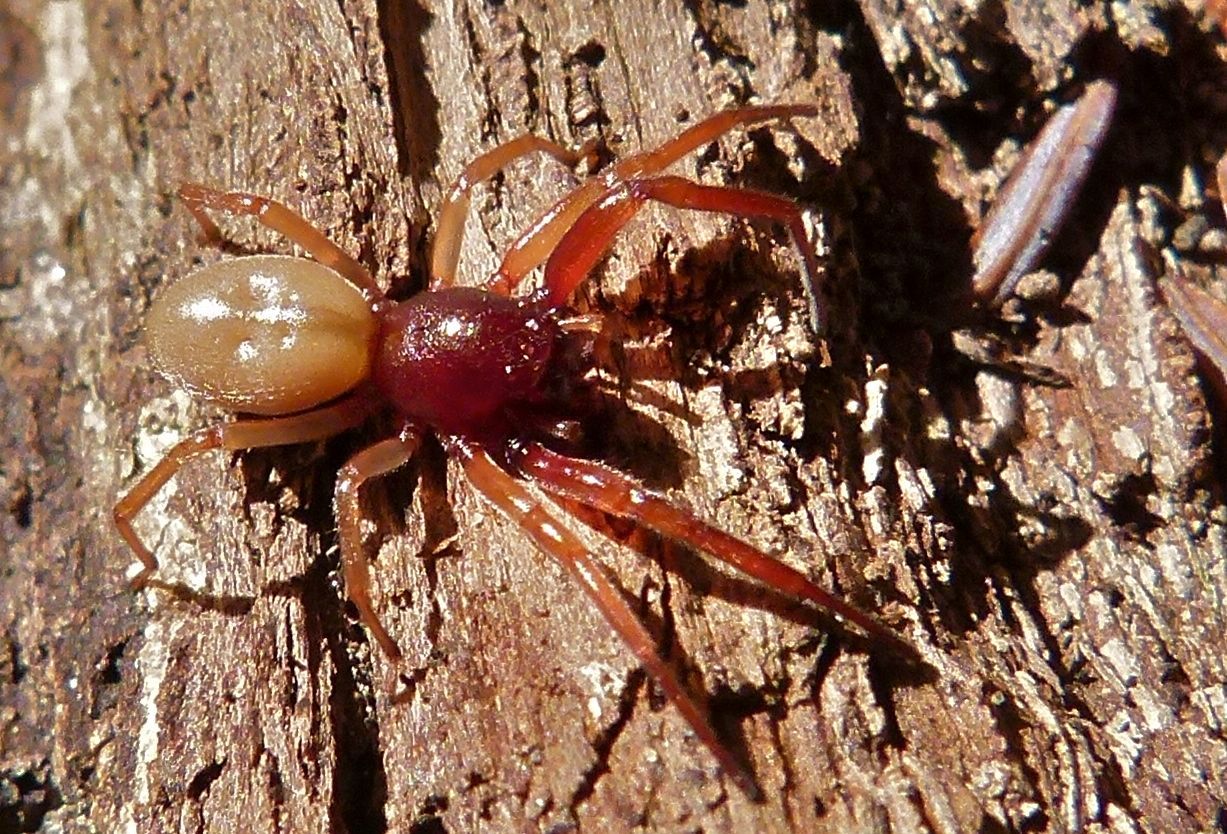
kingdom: Animalia
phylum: Arthropoda
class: Arachnida
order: Araneae
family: Trachelidae
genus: Trachelas
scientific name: Trachelas
